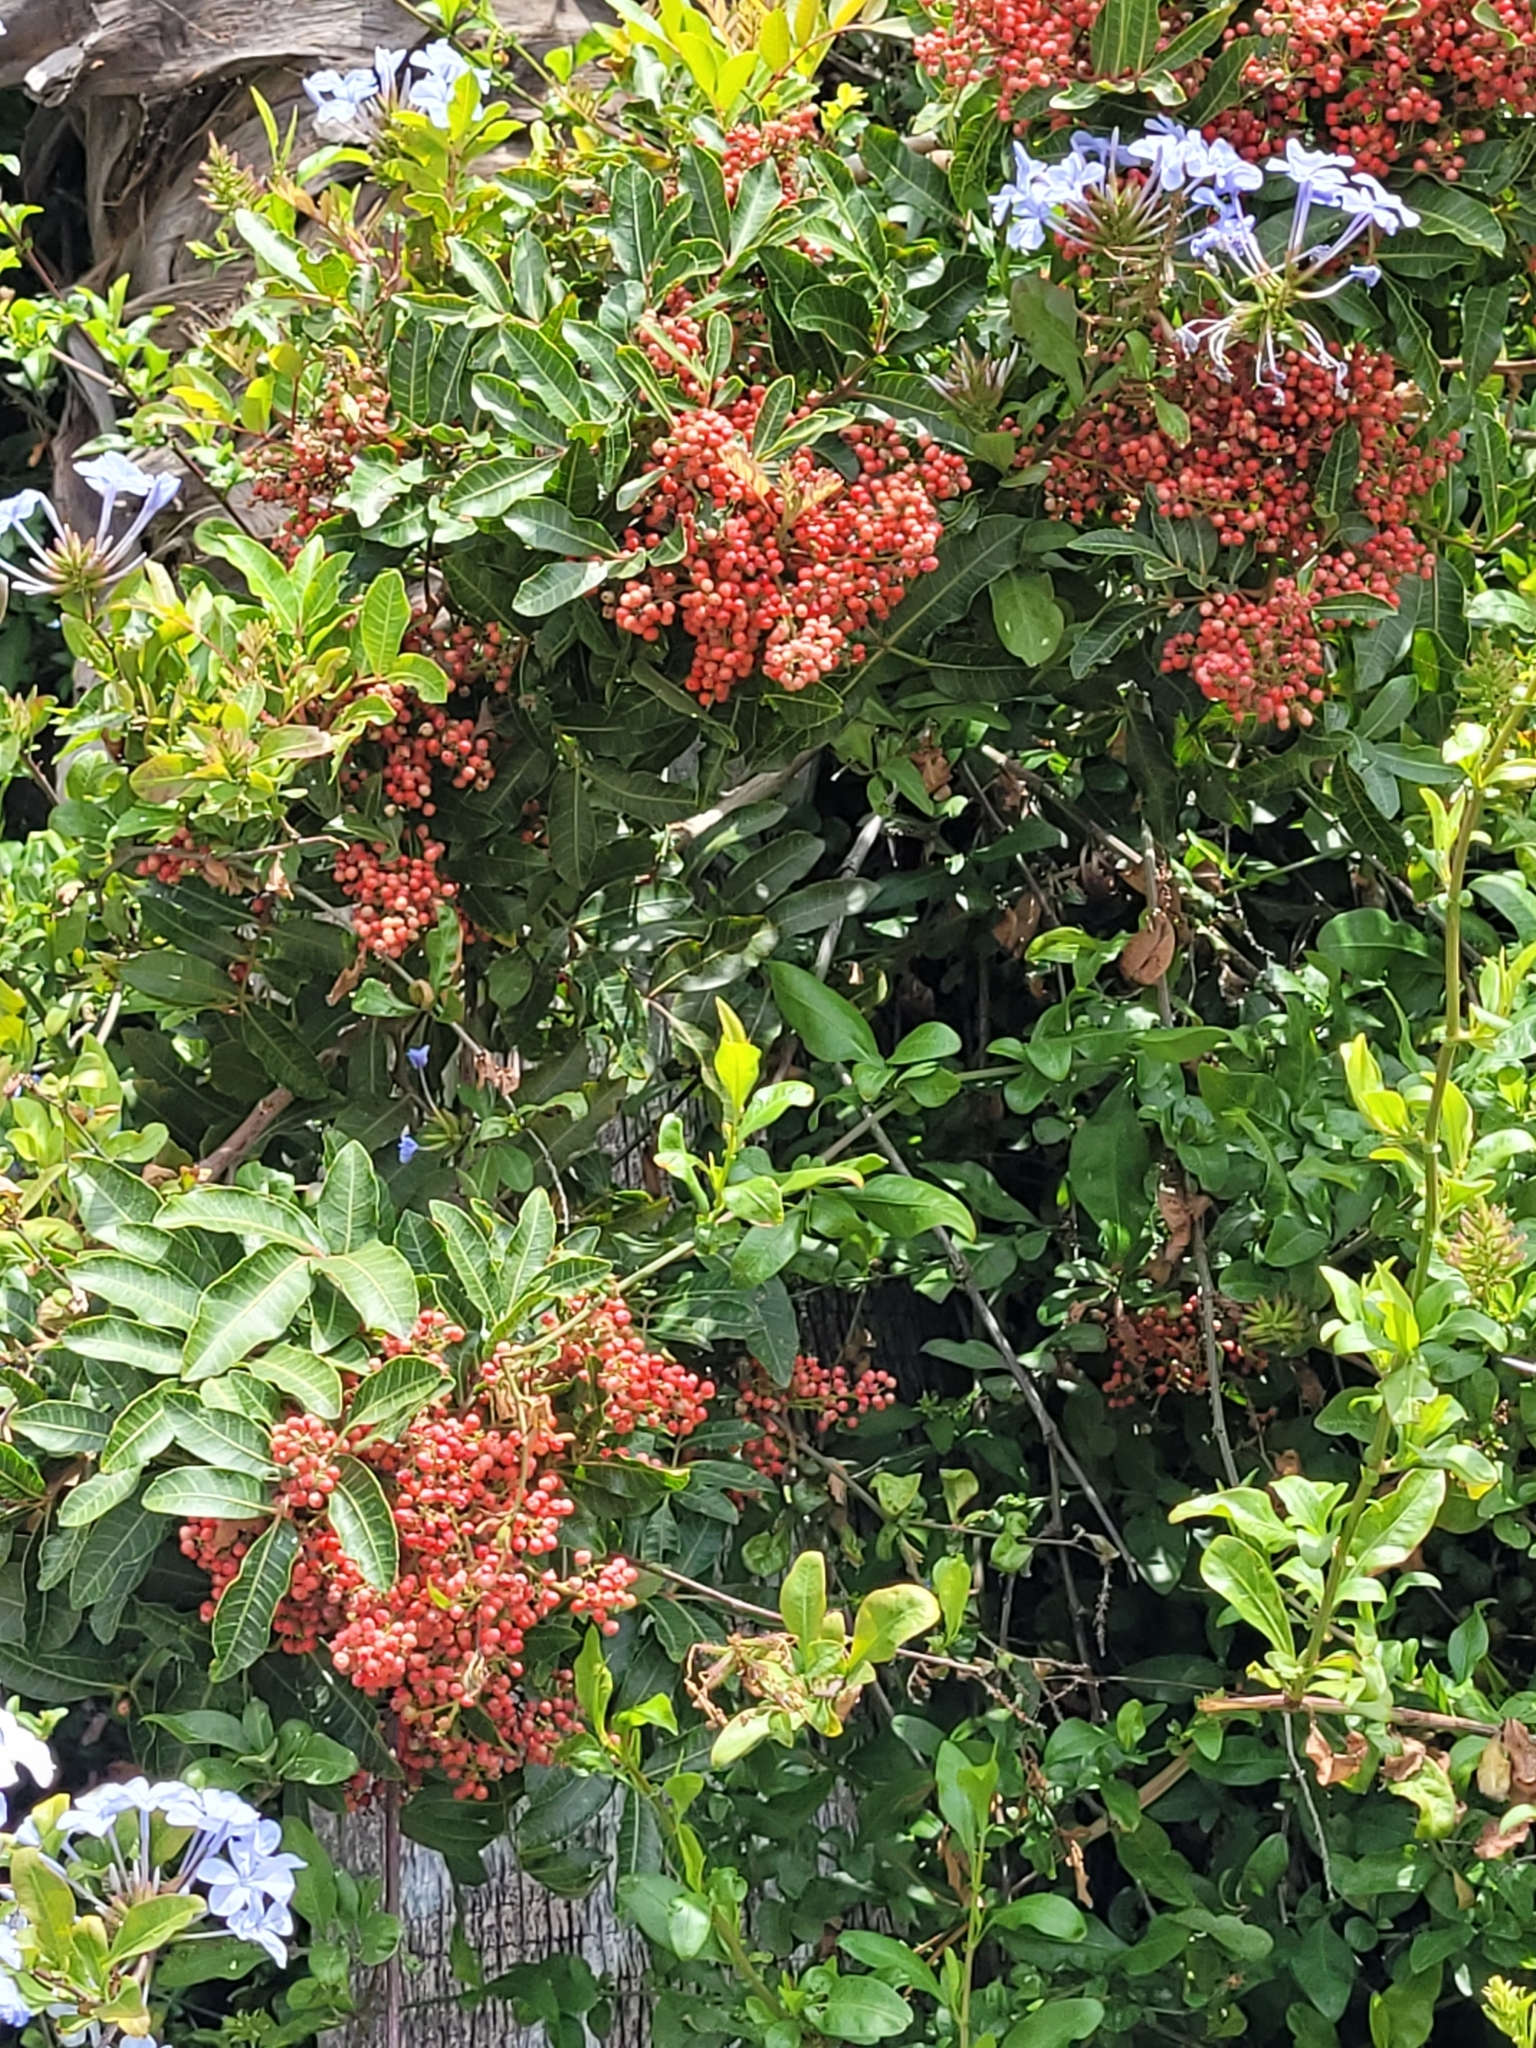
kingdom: Plantae
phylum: Tracheophyta
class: Magnoliopsida
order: Sapindales
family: Anacardiaceae
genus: Schinus
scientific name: Schinus terebinthifolia
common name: Brazilian peppertree
